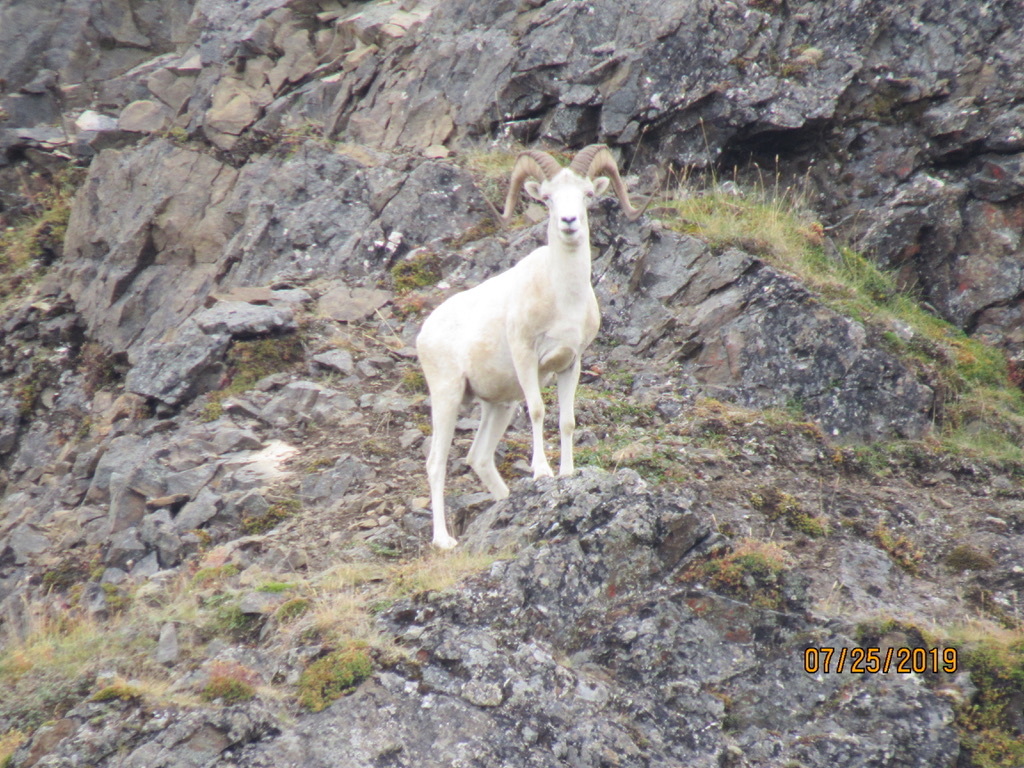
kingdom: Animalia
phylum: Chordata
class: Mammalia
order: Artiodactyla
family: Bovidae
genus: Ovis
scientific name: Ovis dalli
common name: Dall's sheep
